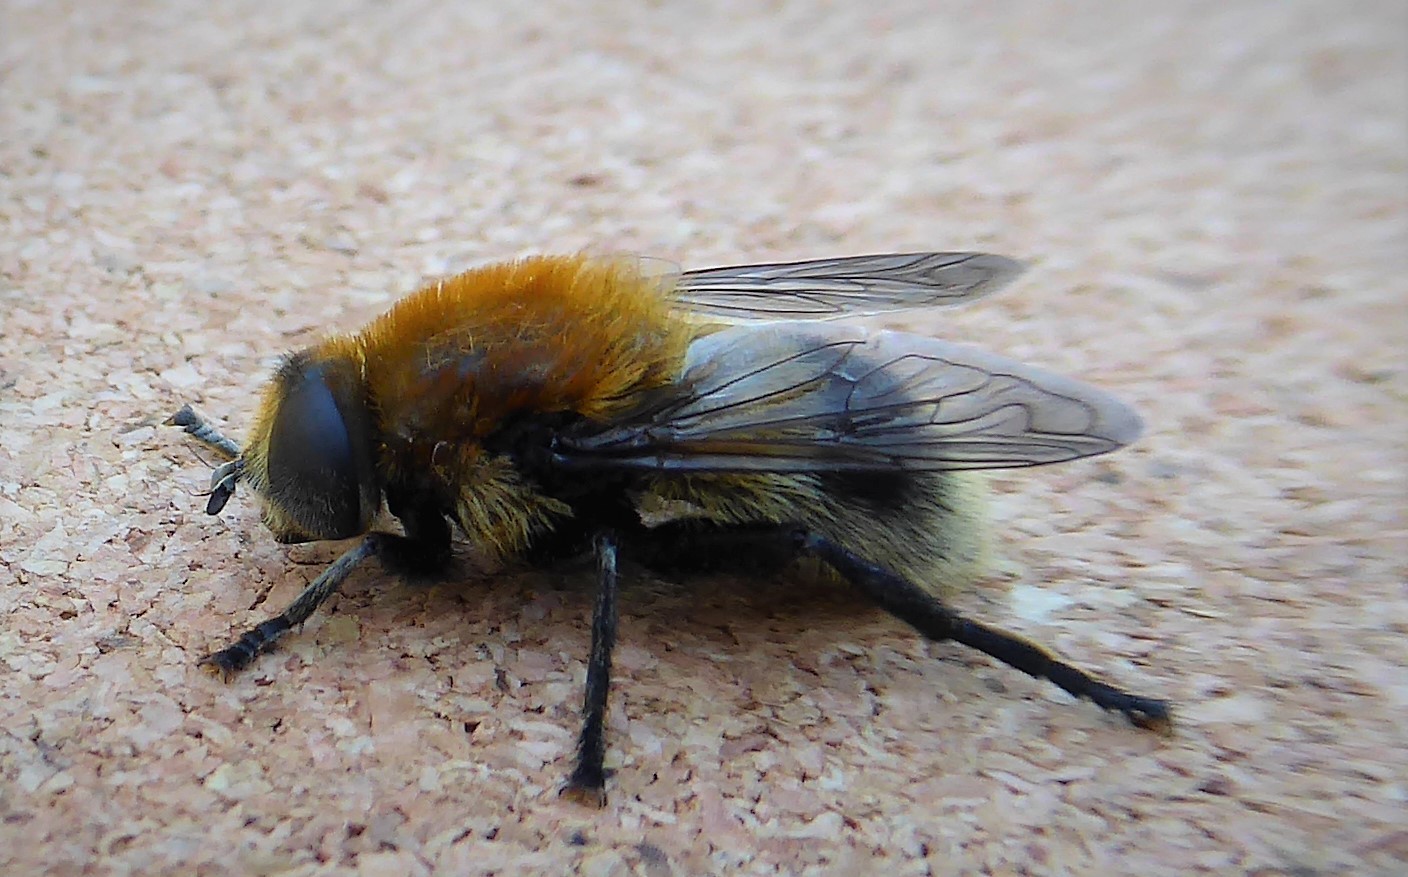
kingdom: Animalia
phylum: Arthropoda
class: Insecta
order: Diptera
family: Syrphidae
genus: Merodon
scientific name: Merodon equestris
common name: Greater bulb-fly
